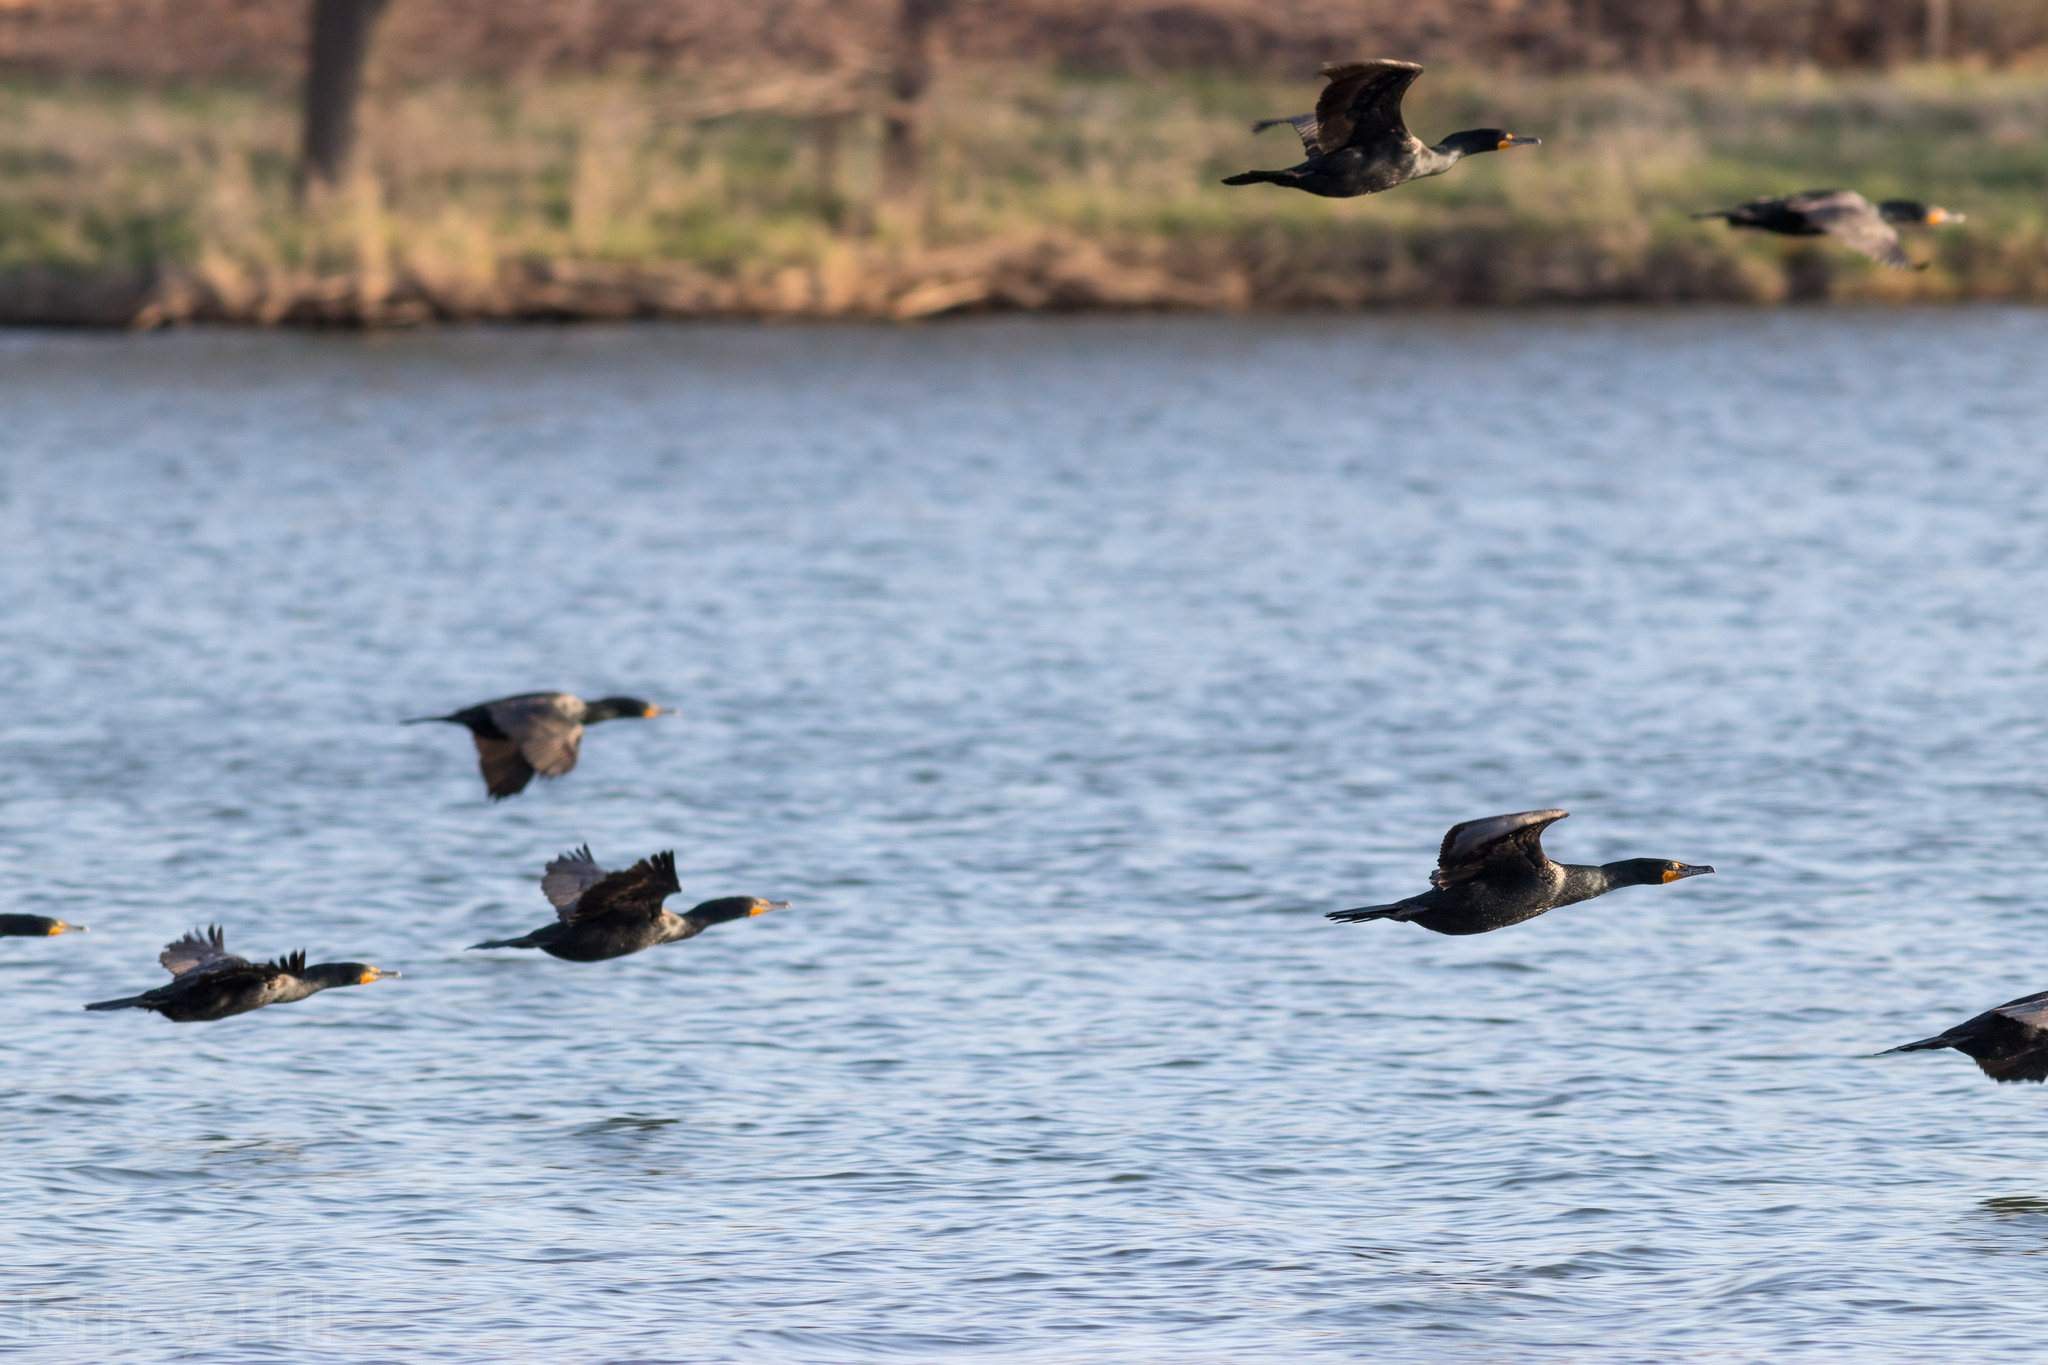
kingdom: Animalia
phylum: Chordata
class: Aves
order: Suliformes
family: Phalacrocoracidae
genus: Phalacrocorax
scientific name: Phalacrocorax auritus
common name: Double-crested cormorant
